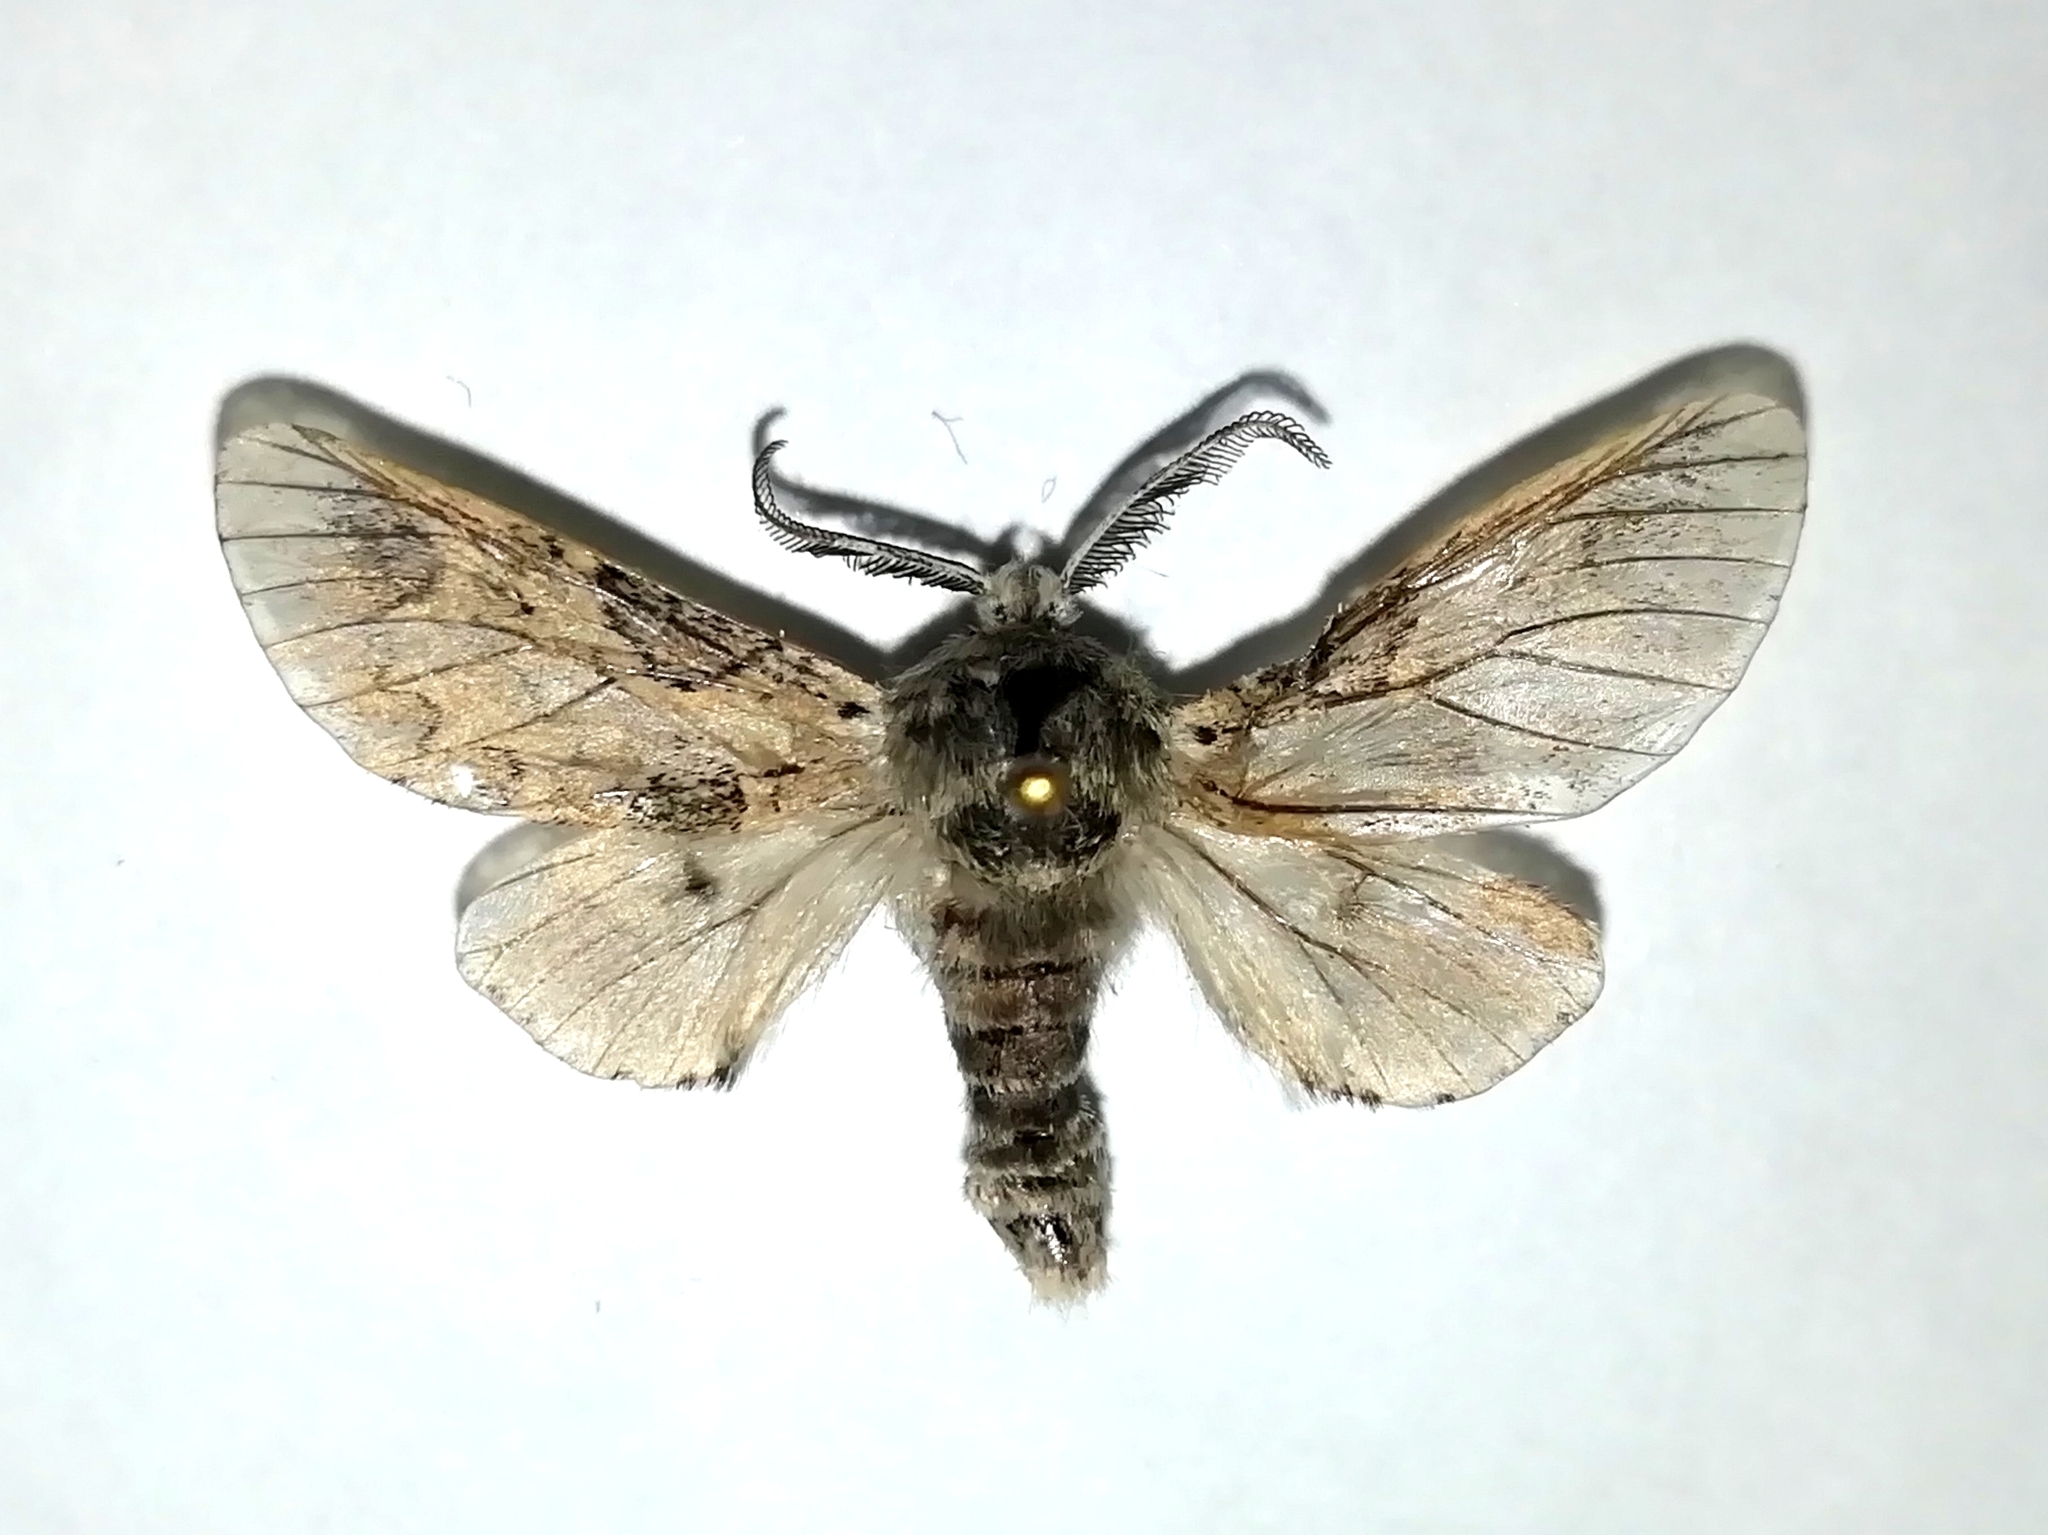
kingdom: Animalia
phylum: Arthropoda
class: Insecta
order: Lepidoptera
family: Notodontidae
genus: Furcula
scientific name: Furcula aeruginosa
